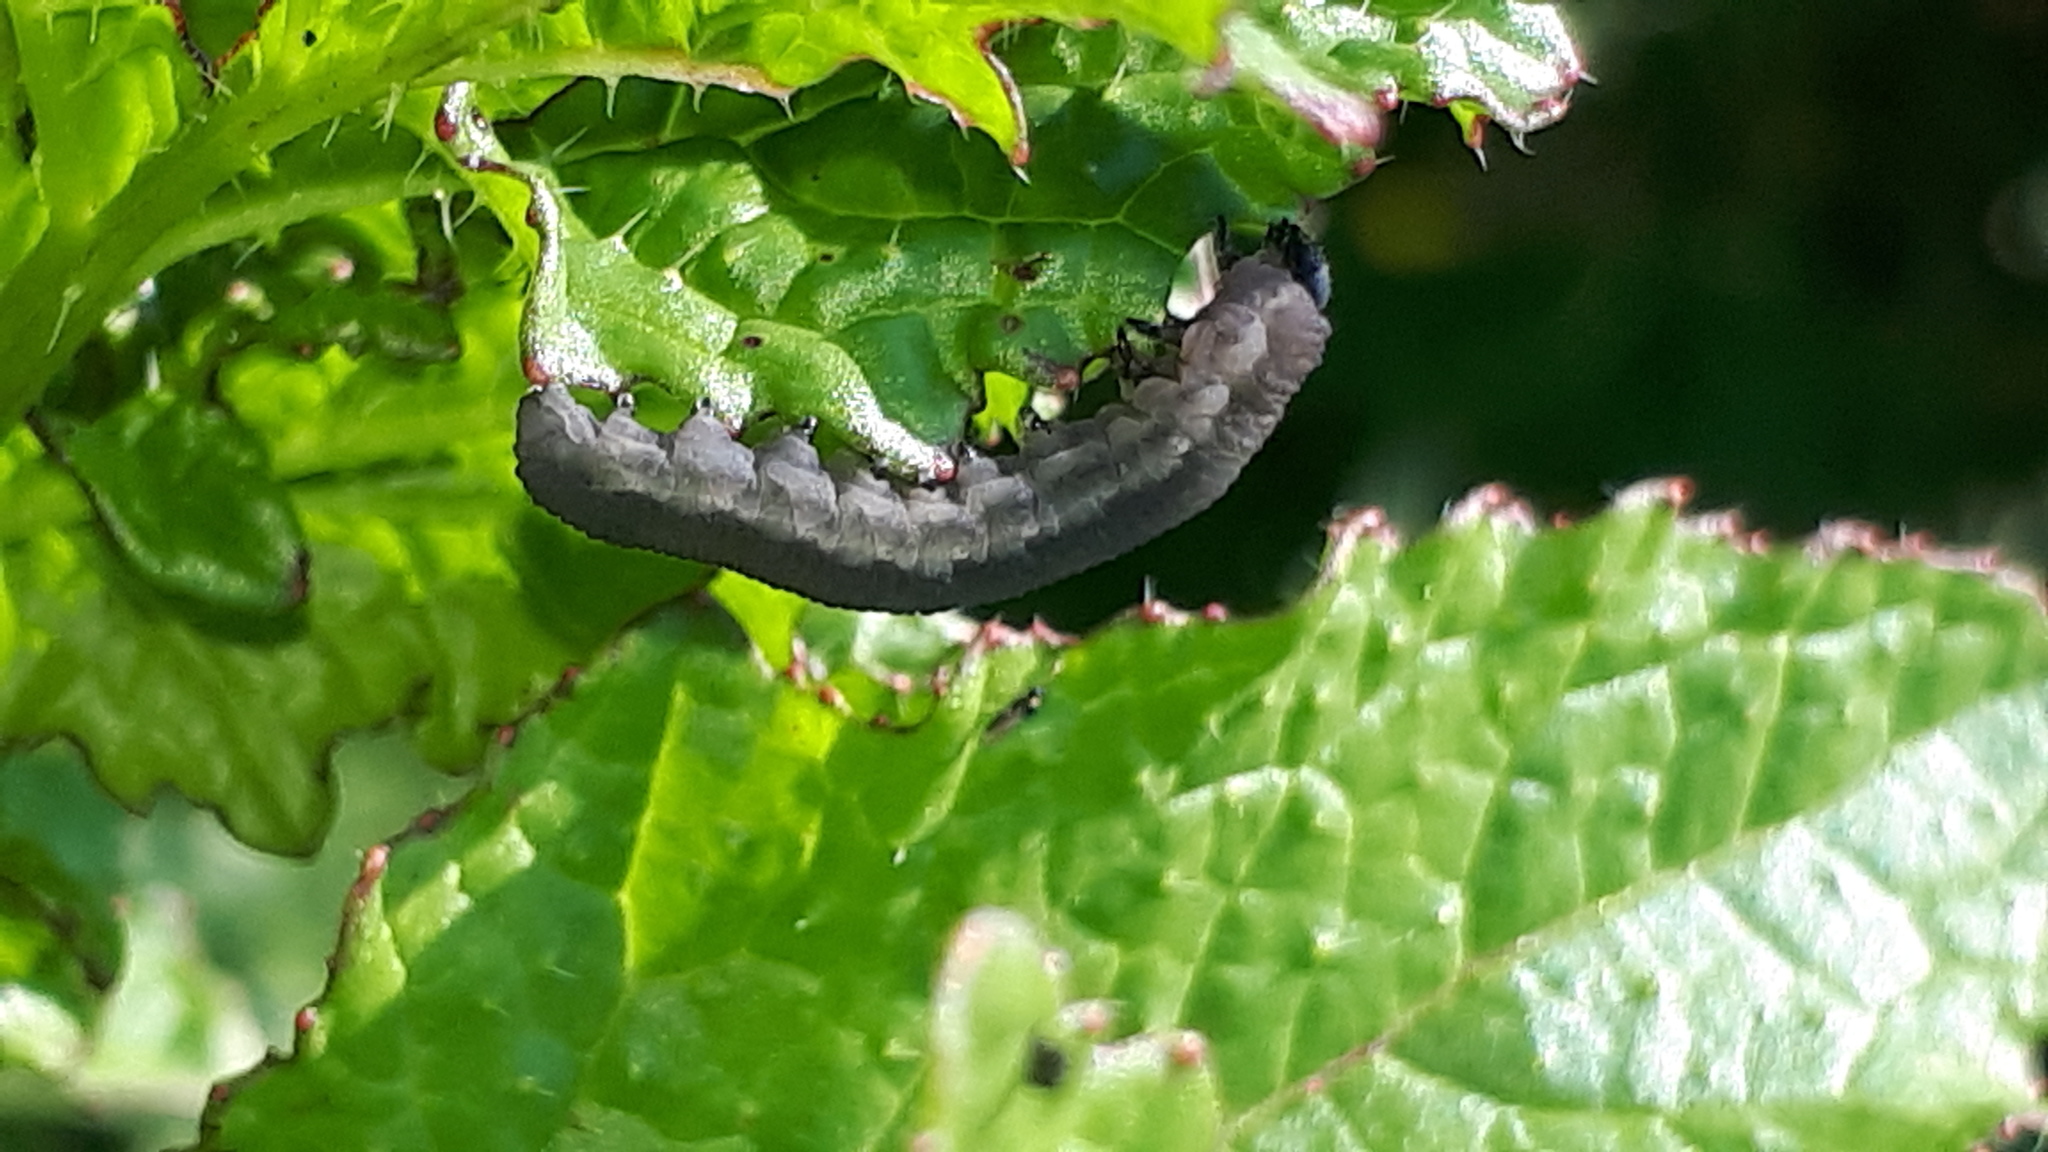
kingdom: Animalia
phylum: Arthropoda
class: Insecta
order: Hymenoptera
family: Tenthredinidae
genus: Athalia
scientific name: Athalia rosae
